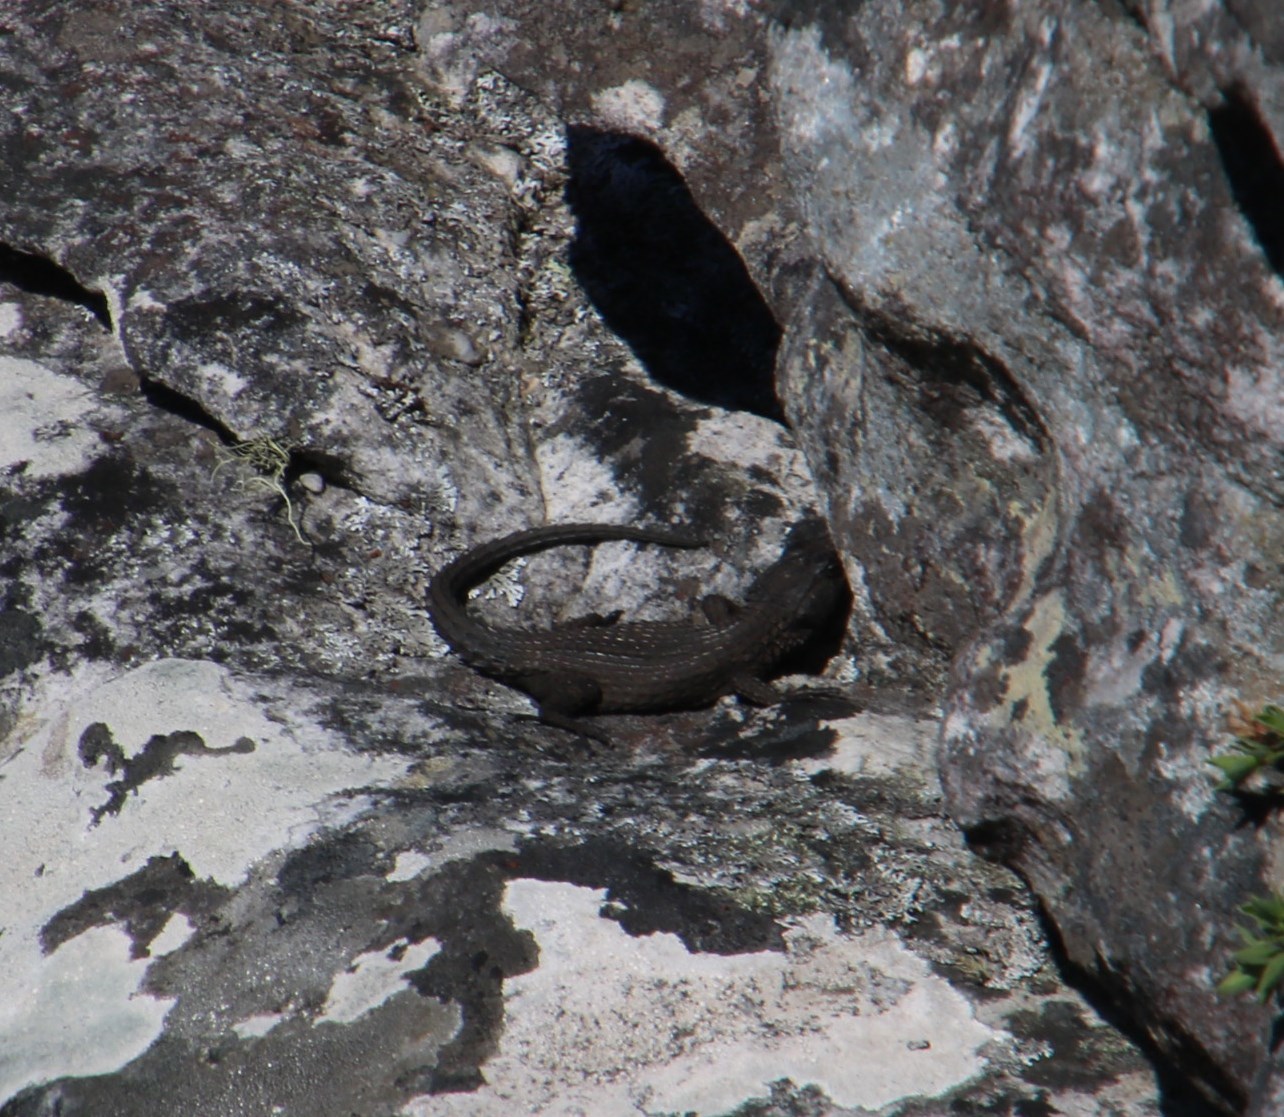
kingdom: Animalia
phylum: Chordata
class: Squamata
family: Cordylidae
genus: Cordylus
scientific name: Cordylus niger
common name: Black girdled lizard
